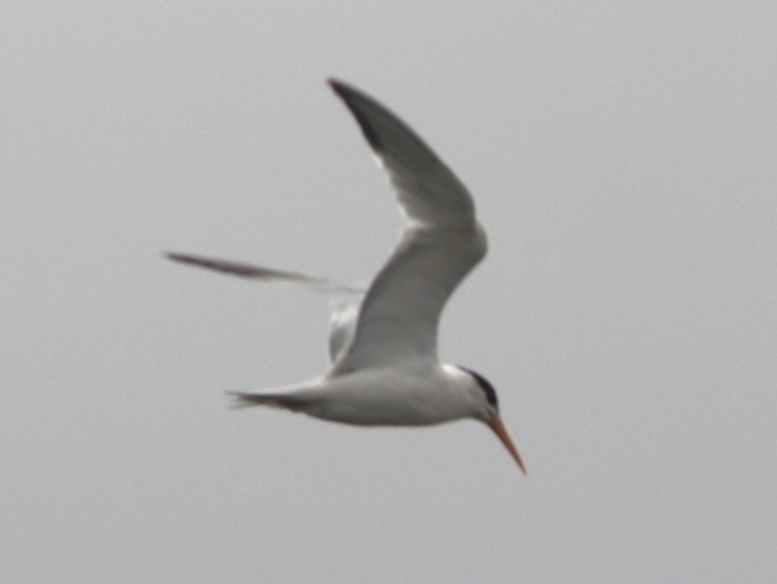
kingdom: Animalia
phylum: Chordata
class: Aves
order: Charadriiformes
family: Laridae
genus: Thalasseus
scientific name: Thalasseus elegans
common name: Elegant tern
